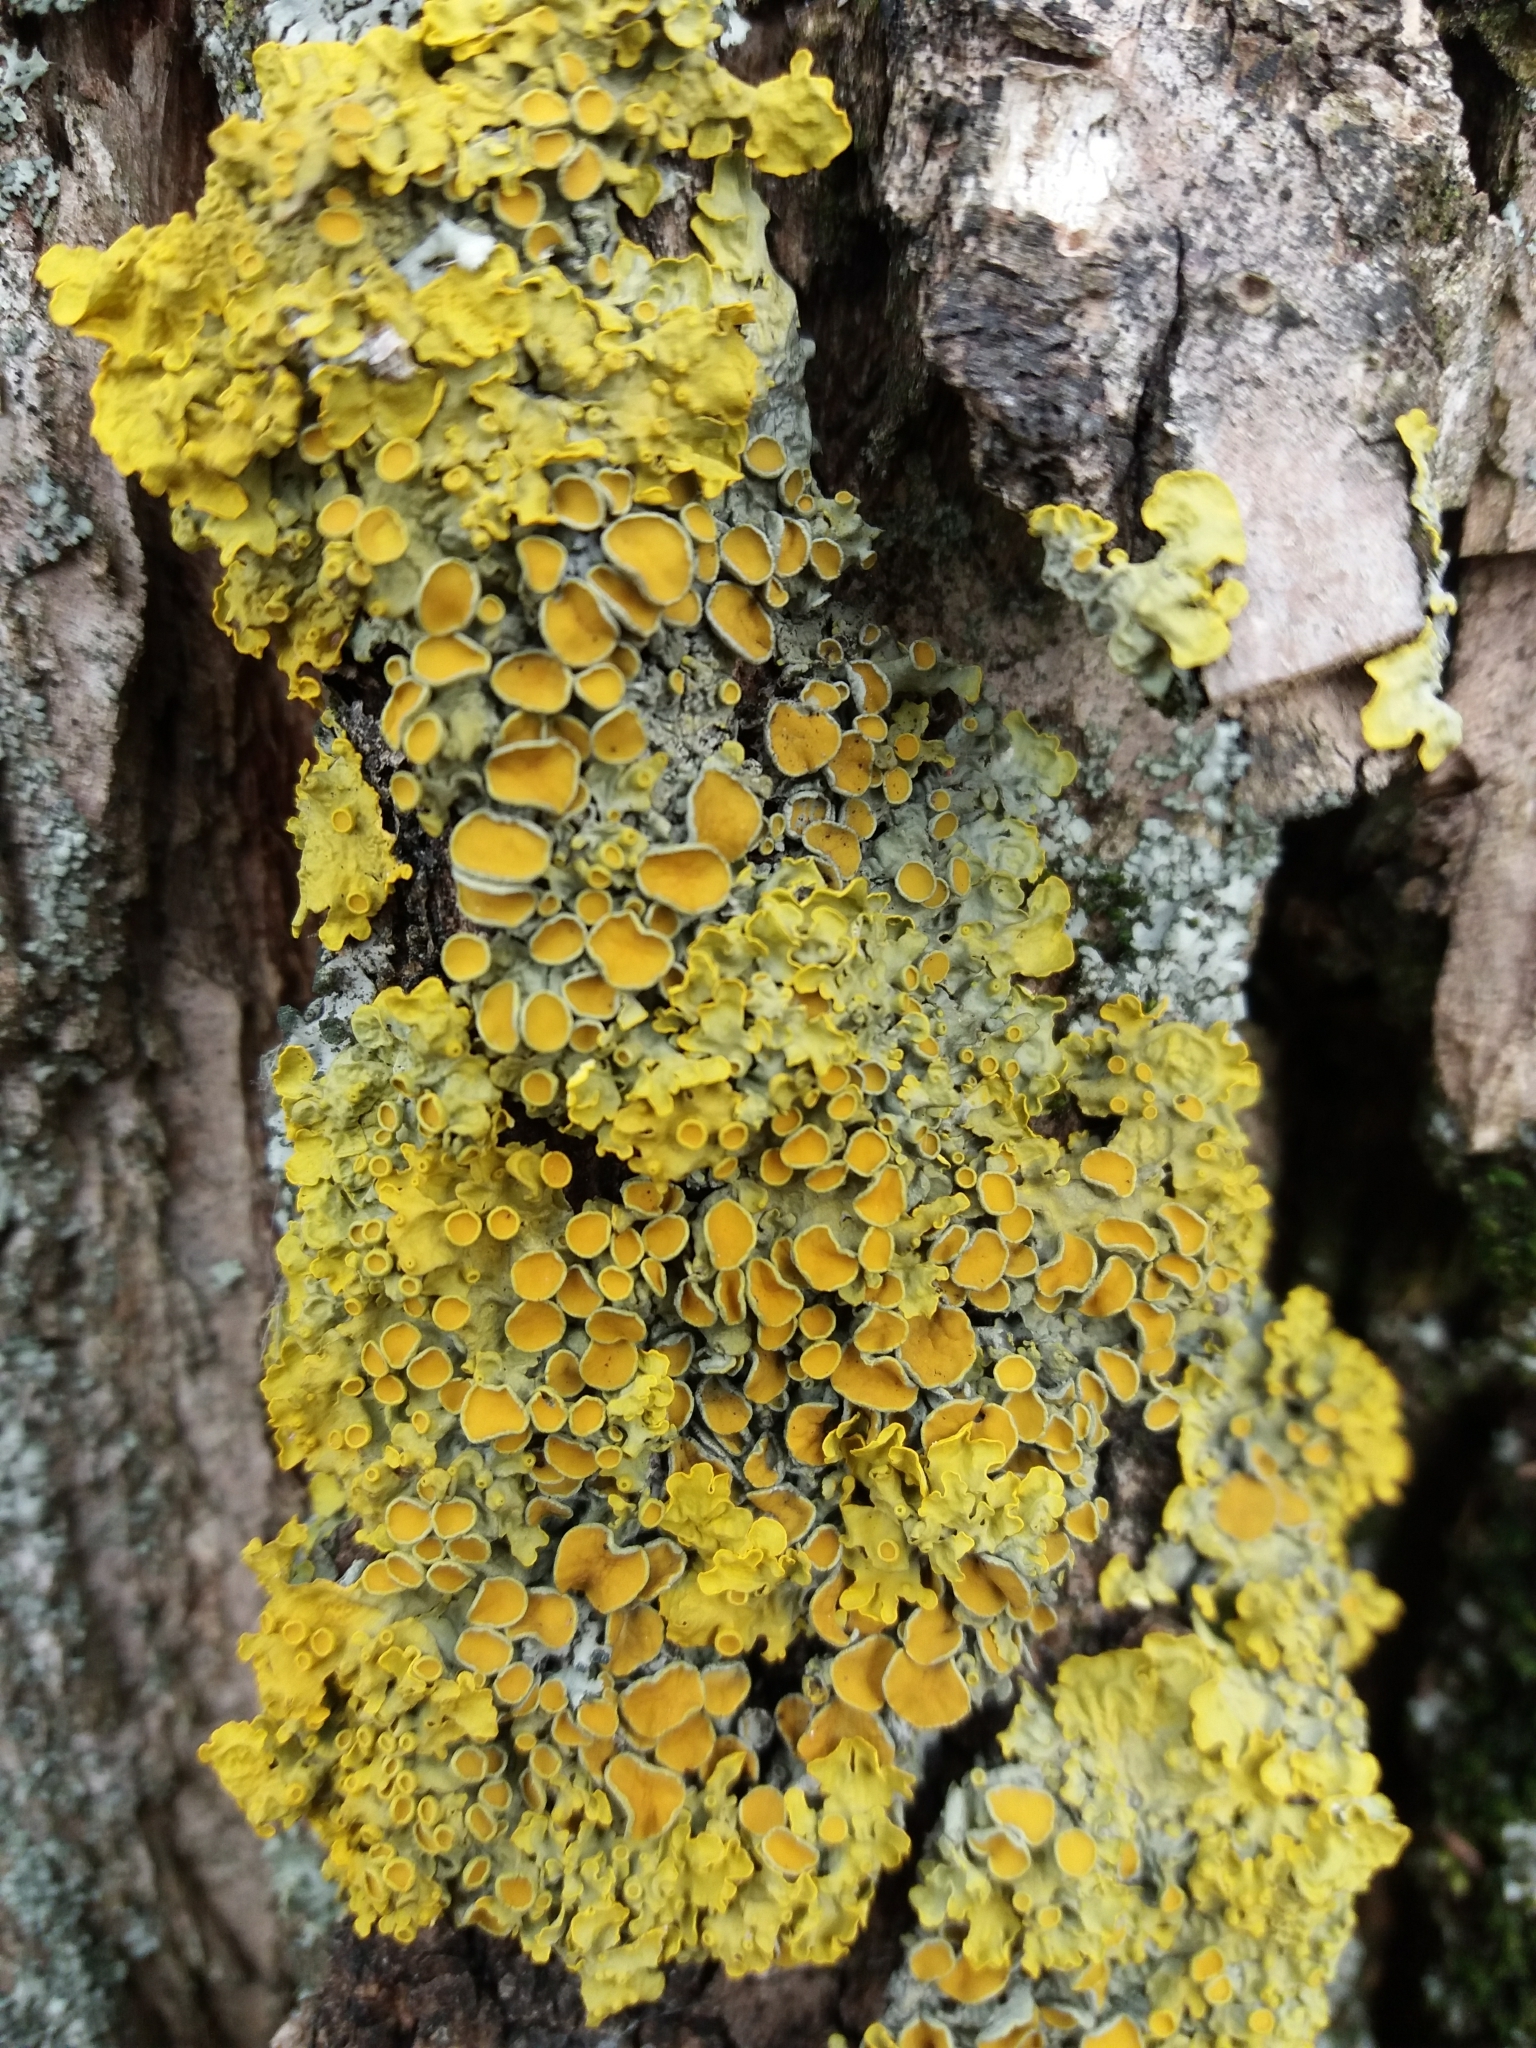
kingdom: Fungi
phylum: Ascomycota
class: Lecanoromycetes
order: Teloschistales
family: Teloschistaceae
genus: Xanthoria
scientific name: Xanthoria parietina
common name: Common orange lichen
